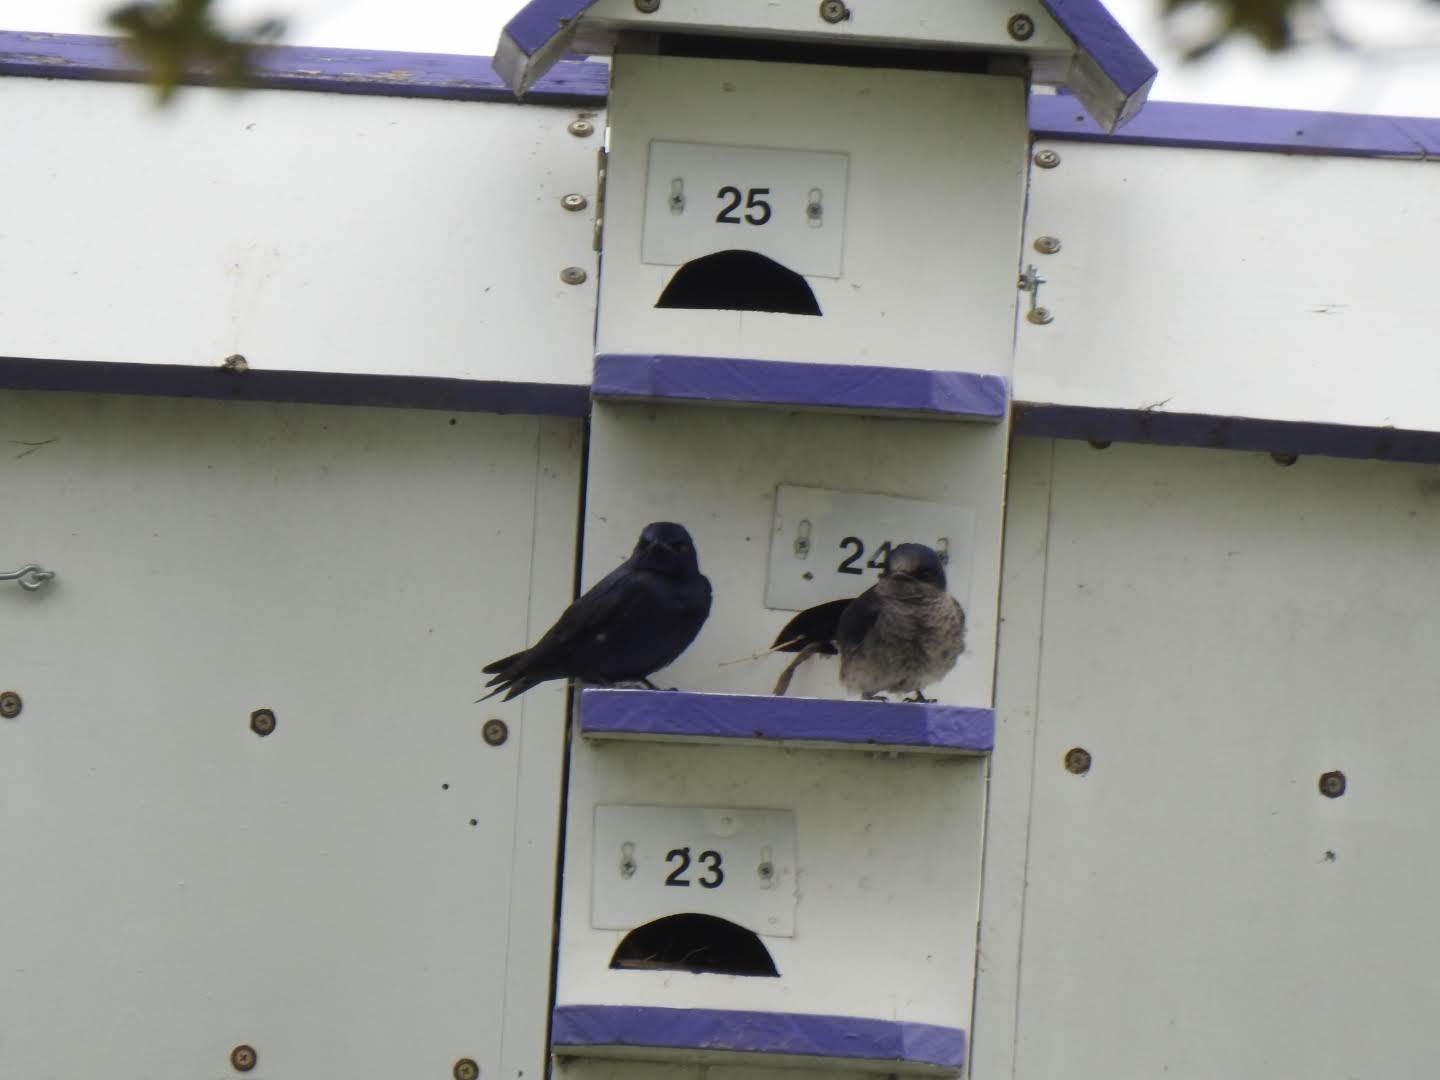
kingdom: Animalia
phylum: Chordata
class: Aves
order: Passeriformes
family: Hirundinidae
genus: Progne
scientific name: Progne subis
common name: Purple martin
